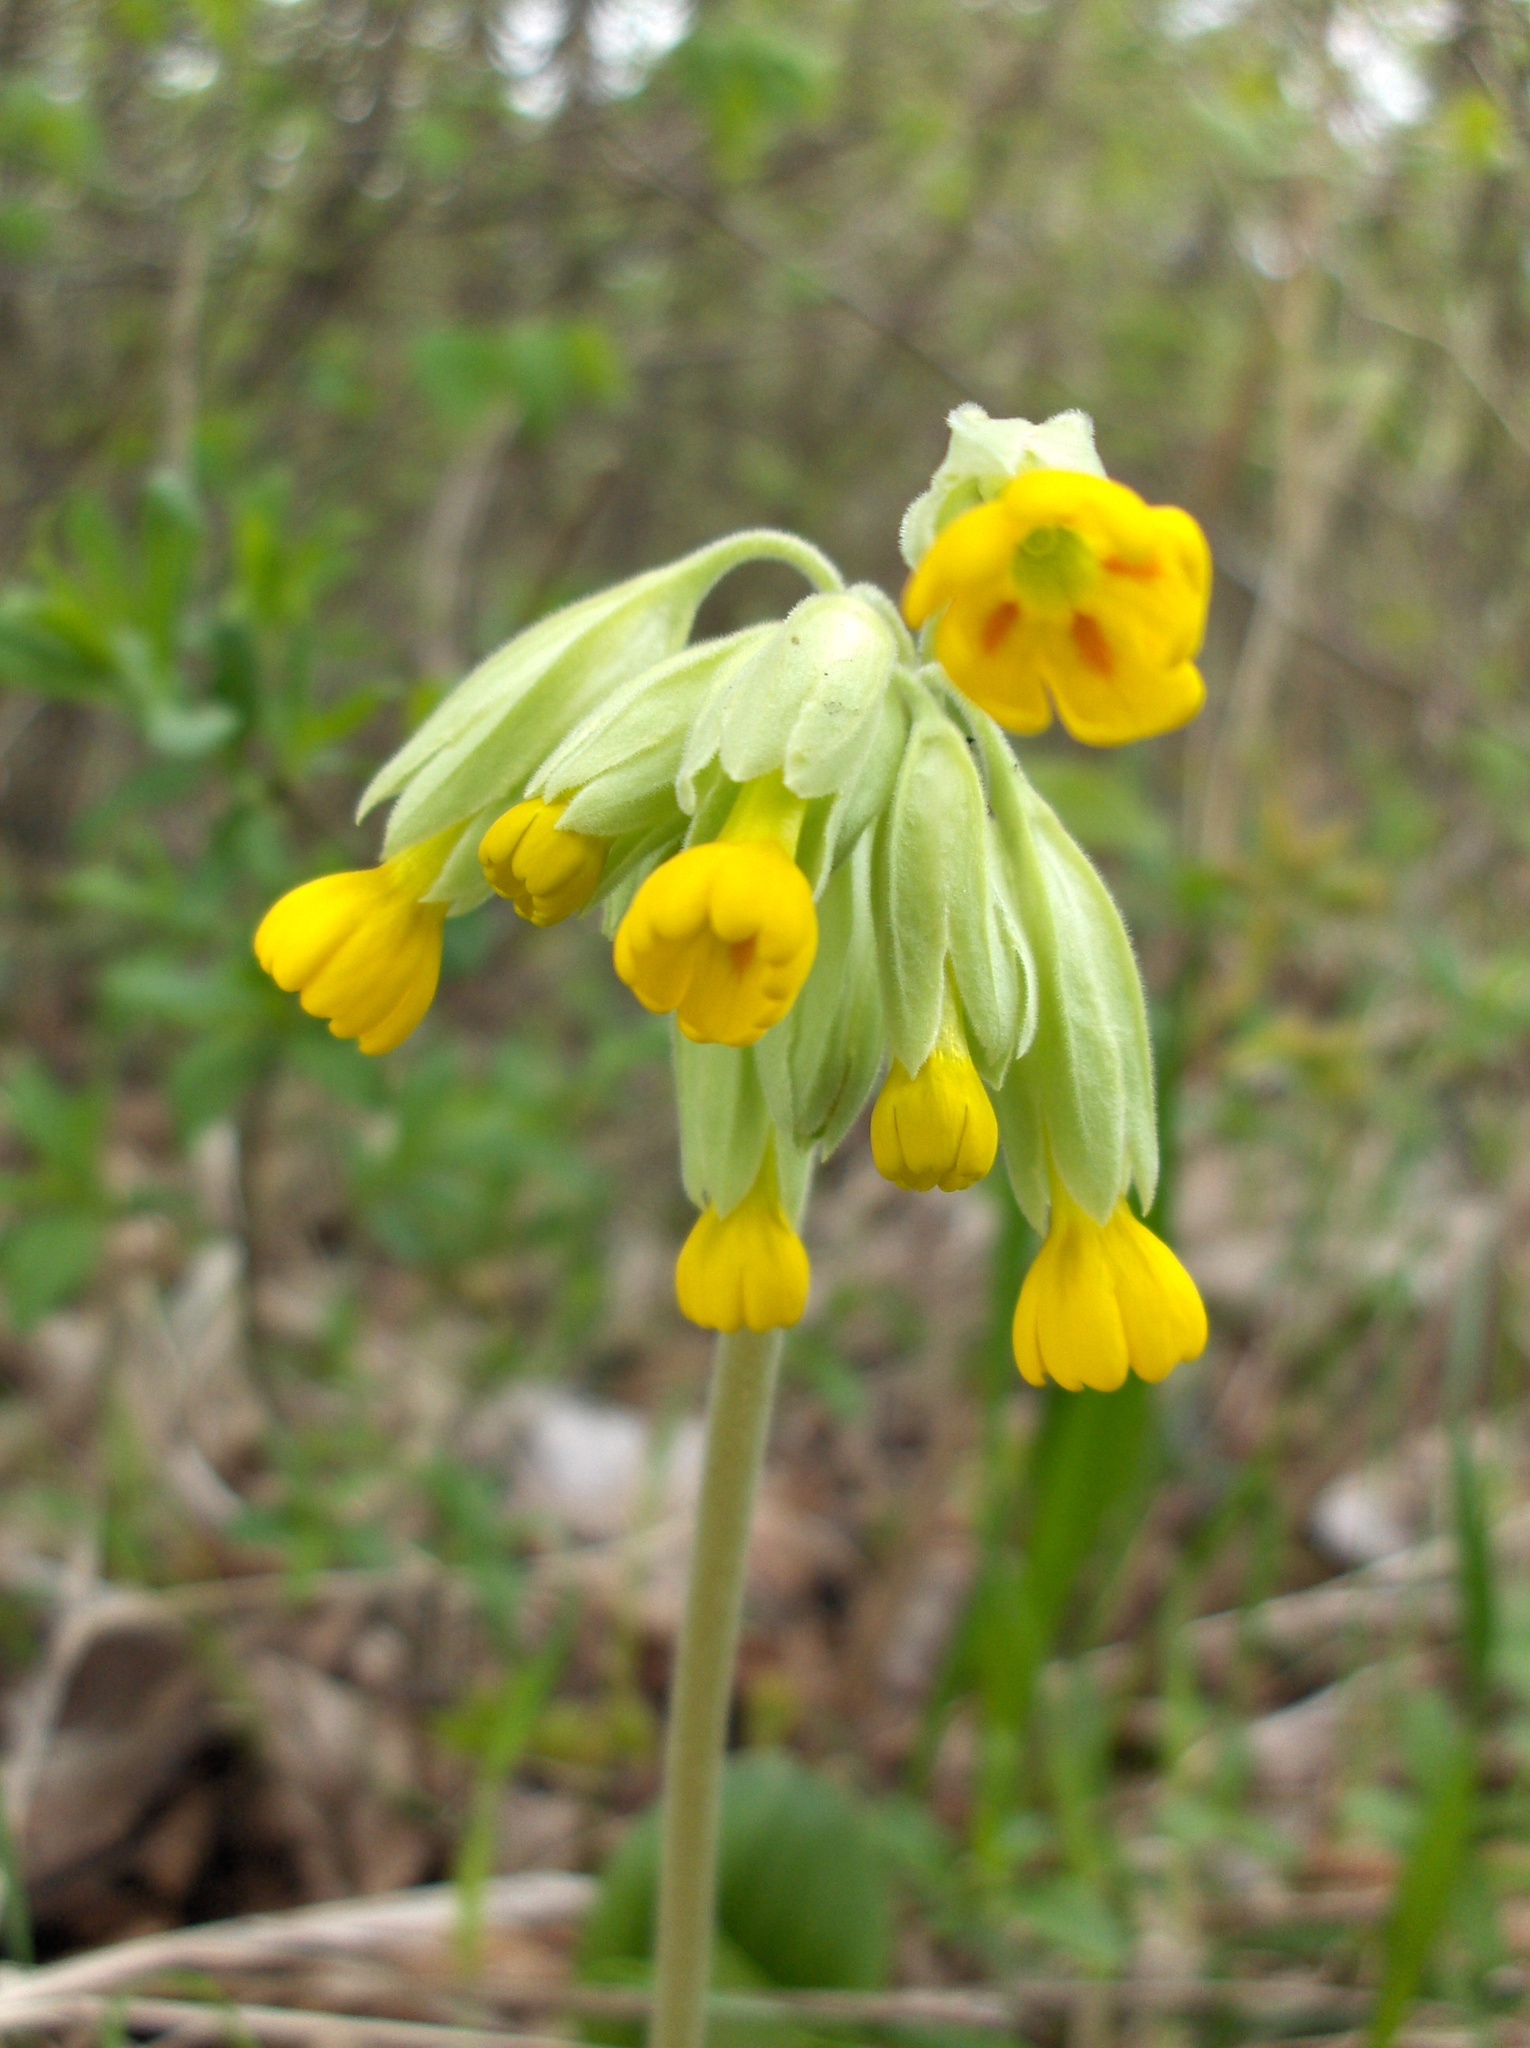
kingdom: Plantae
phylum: Tracheophyta
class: Magnoliopsida
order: Ericales
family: Primulaceae
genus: Primula
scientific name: Primula veris
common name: Cowslip
